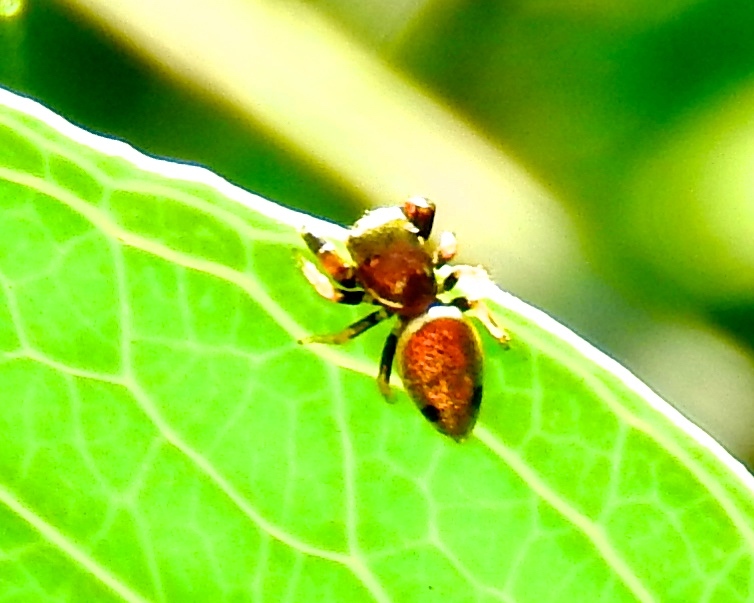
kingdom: Animalia
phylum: Arthropoda
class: Arachnida
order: Araneae
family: Salticidae
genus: Sassacus
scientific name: Sassacus vitis
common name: Jumping spiders
